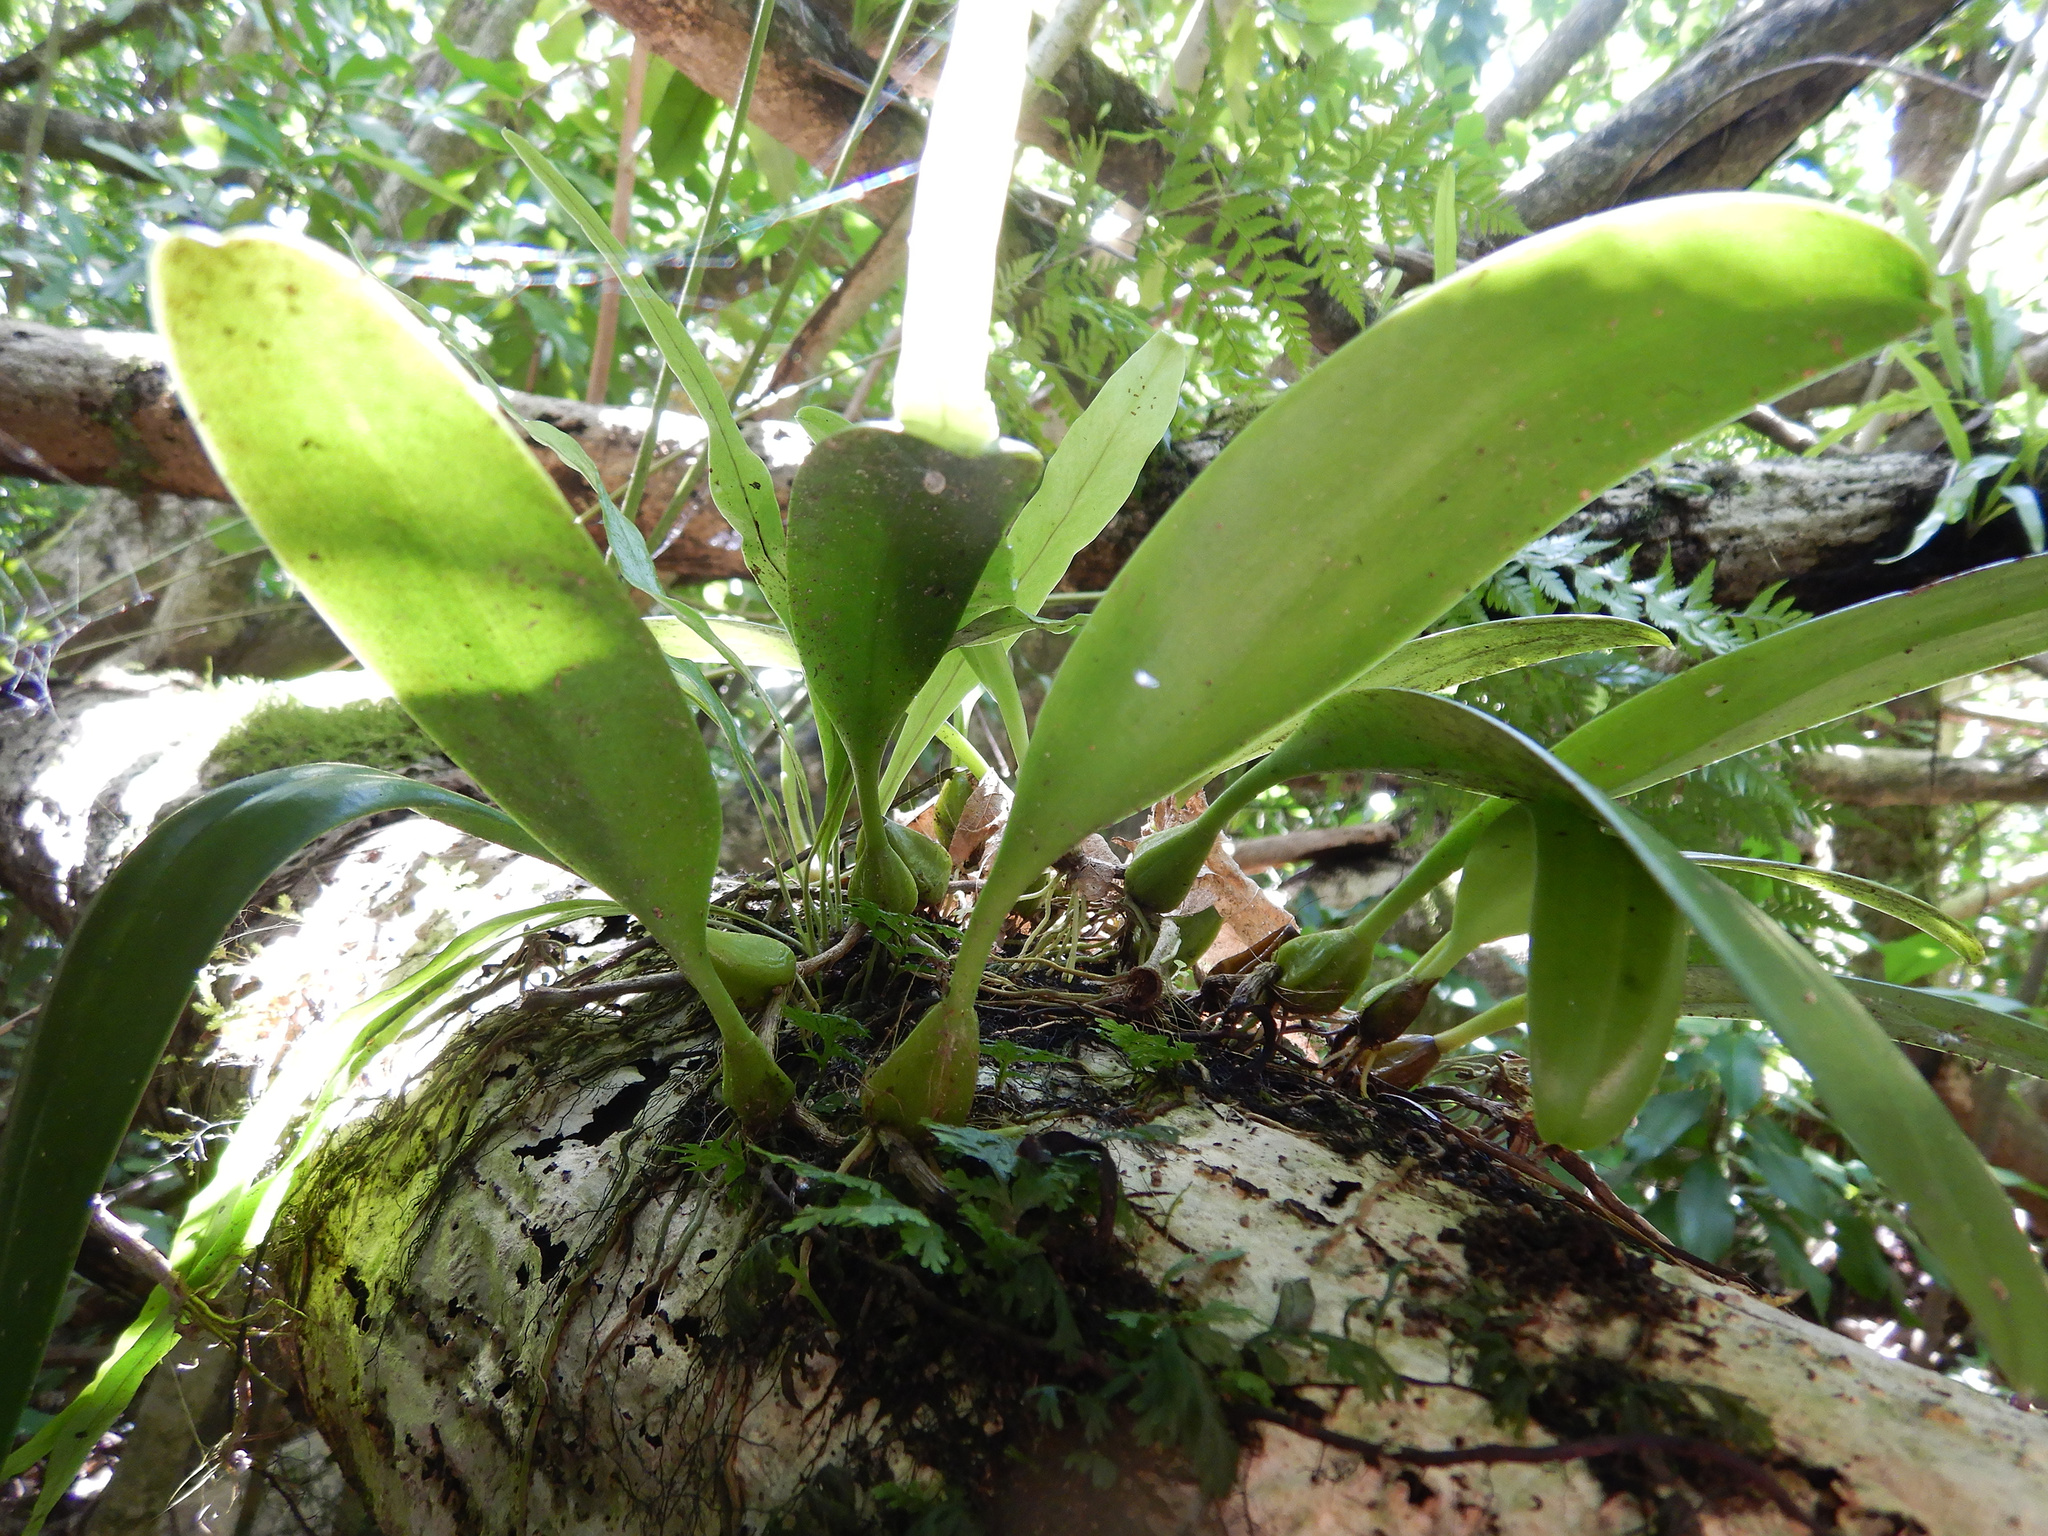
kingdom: Plantae
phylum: Tracheophyta
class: Liliopsida
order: Asparagales
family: Orchidaceae
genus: Bulbophyllum
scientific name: Bulbophyllum longiflorum
